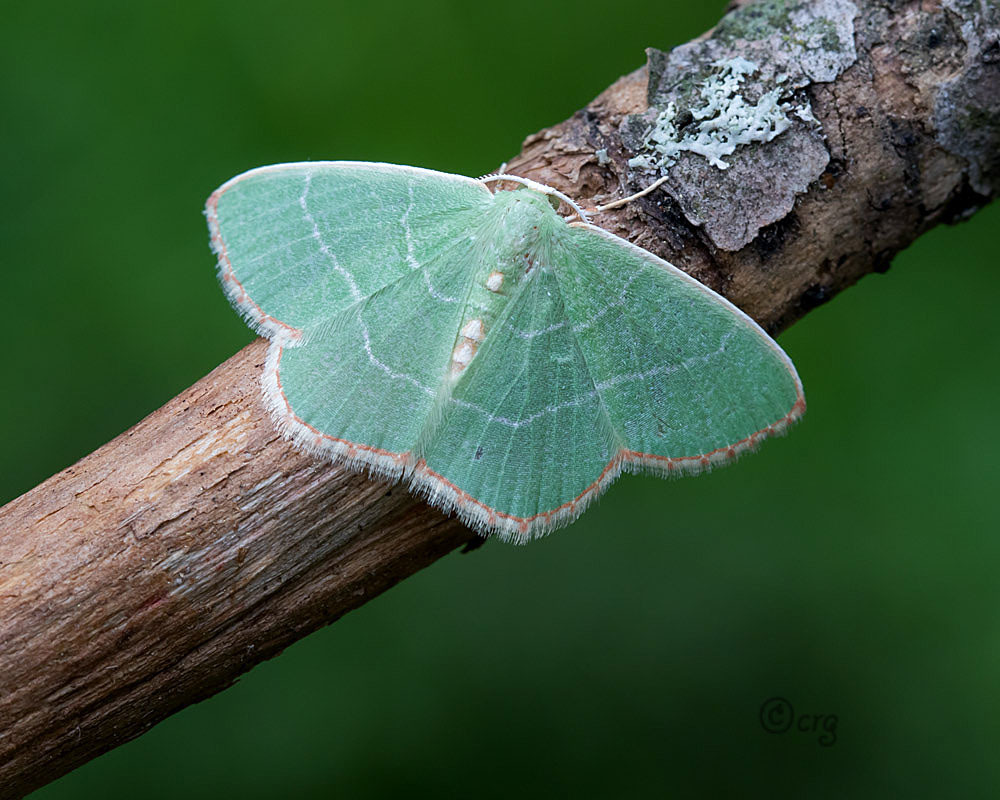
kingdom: Animalia
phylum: Arthropoda
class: Insecta
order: Lepidoptera
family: Geometridae
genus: Nemoria
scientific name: Nemoria bistriaria
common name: Red-fringed emerald
